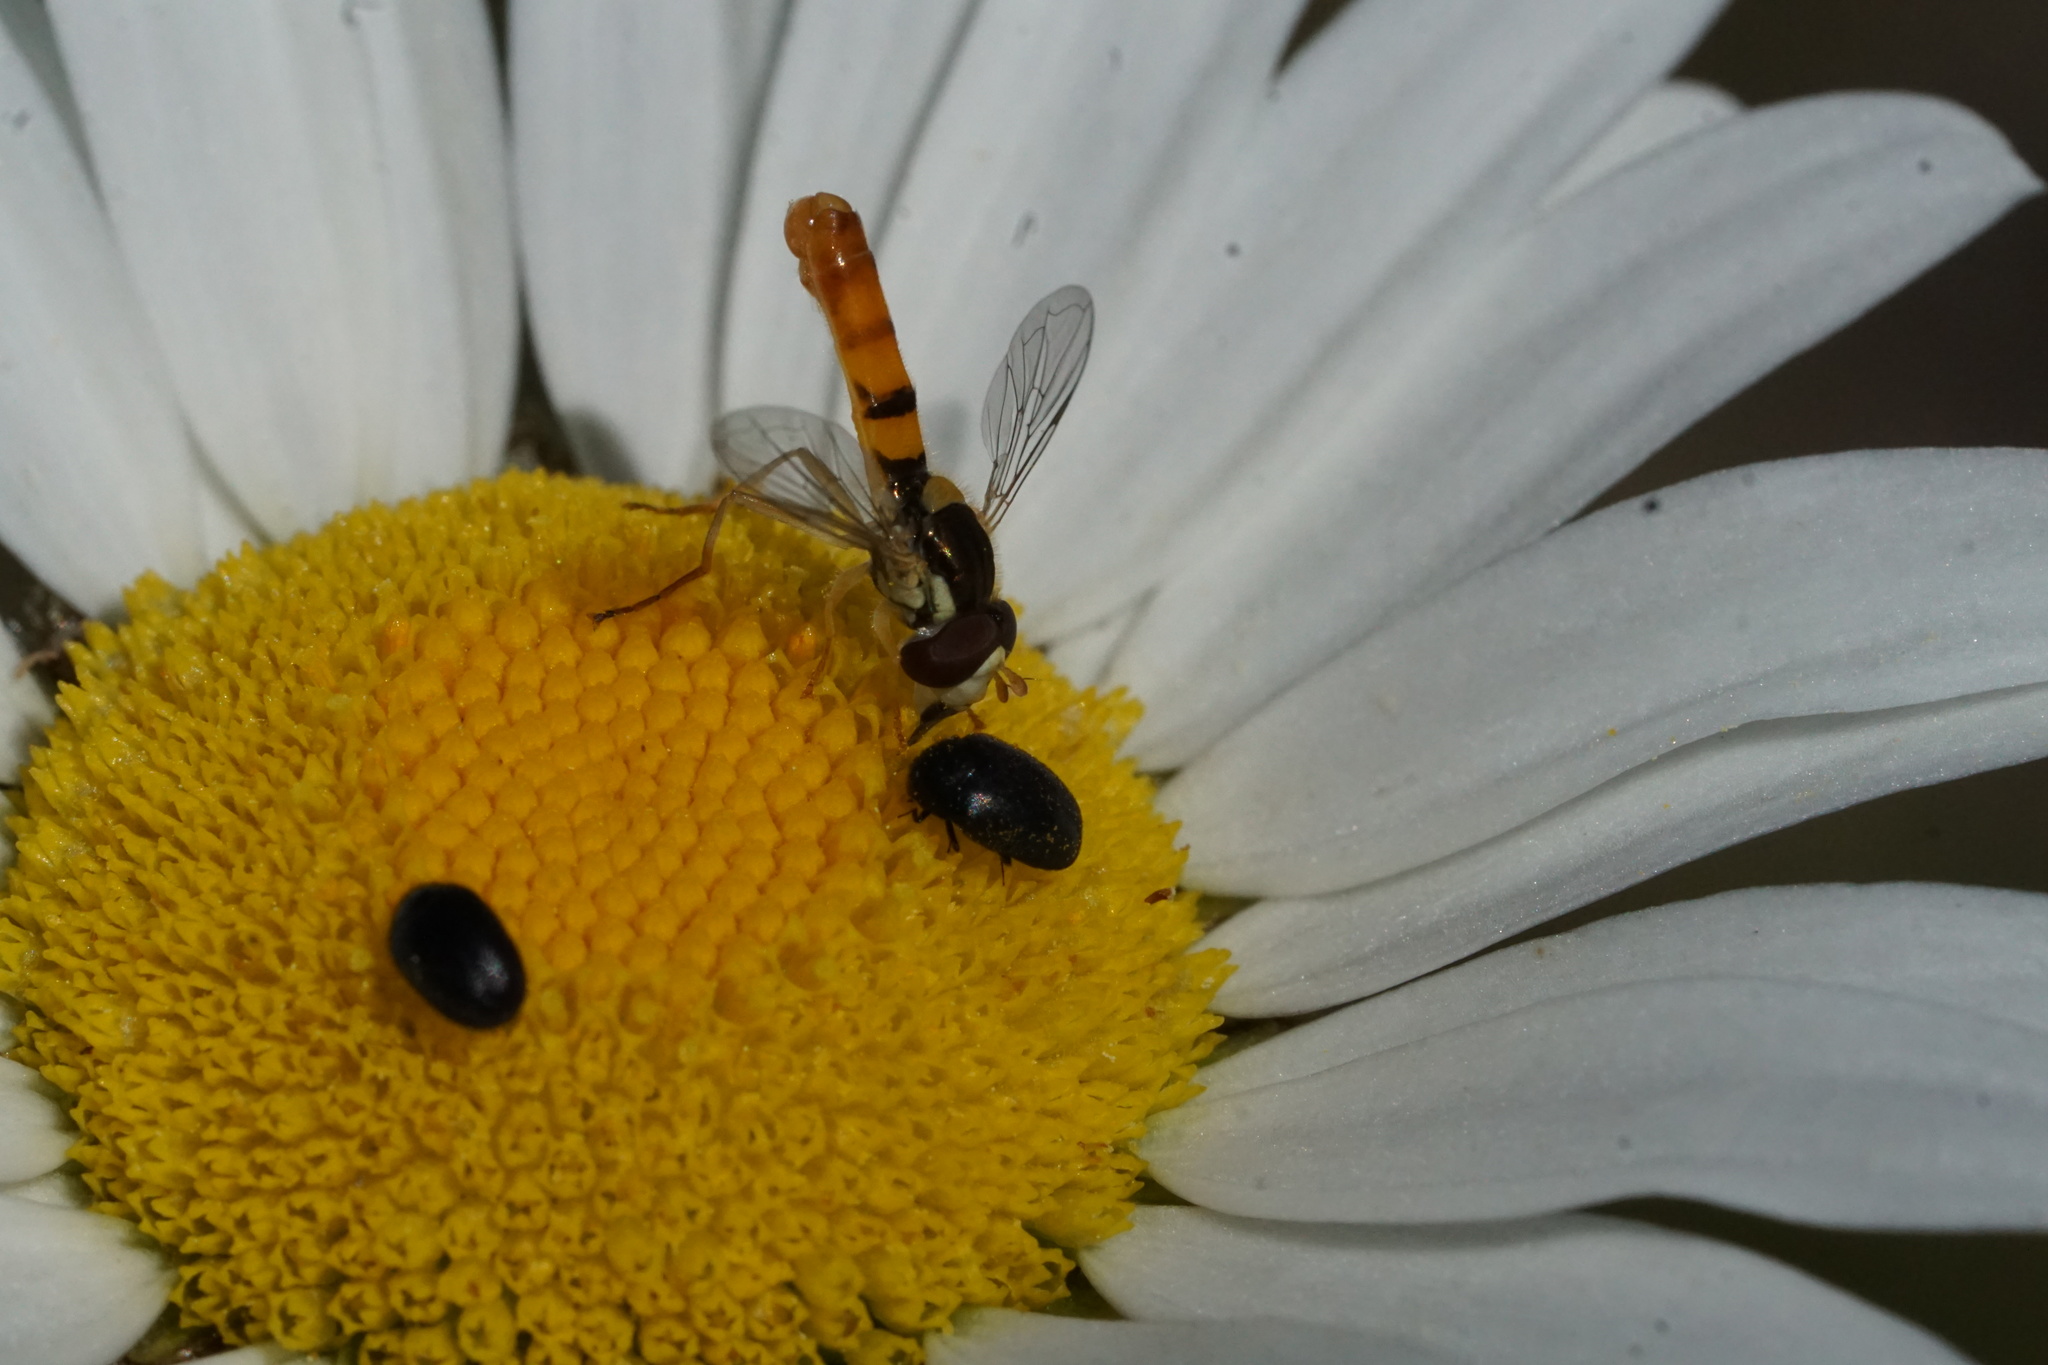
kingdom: Animalia
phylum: Arthropoda
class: Insecta
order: Diptera
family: Syrphidae
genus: Sphaerophoria
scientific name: Sphaerophoria contigua
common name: Tufted globetail
